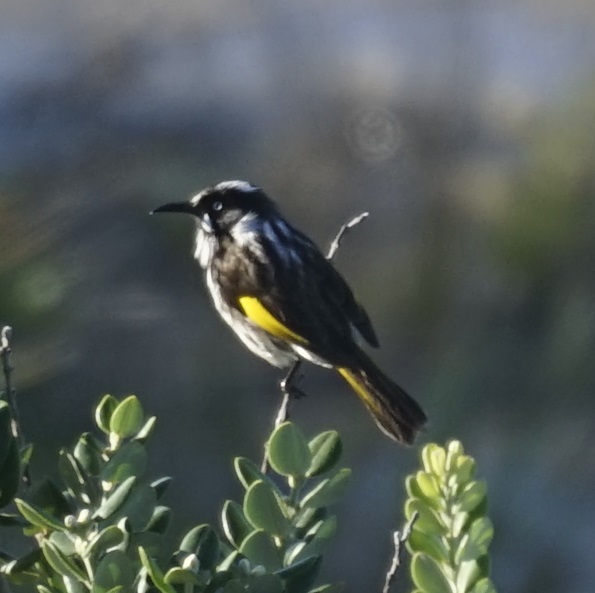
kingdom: Animalia
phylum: Chordata
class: Aves
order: Passeriformes
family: Meliphagidae
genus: Phylidonyris
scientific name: Phylidonyris novaehollandiae
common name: New holland honeyeater
